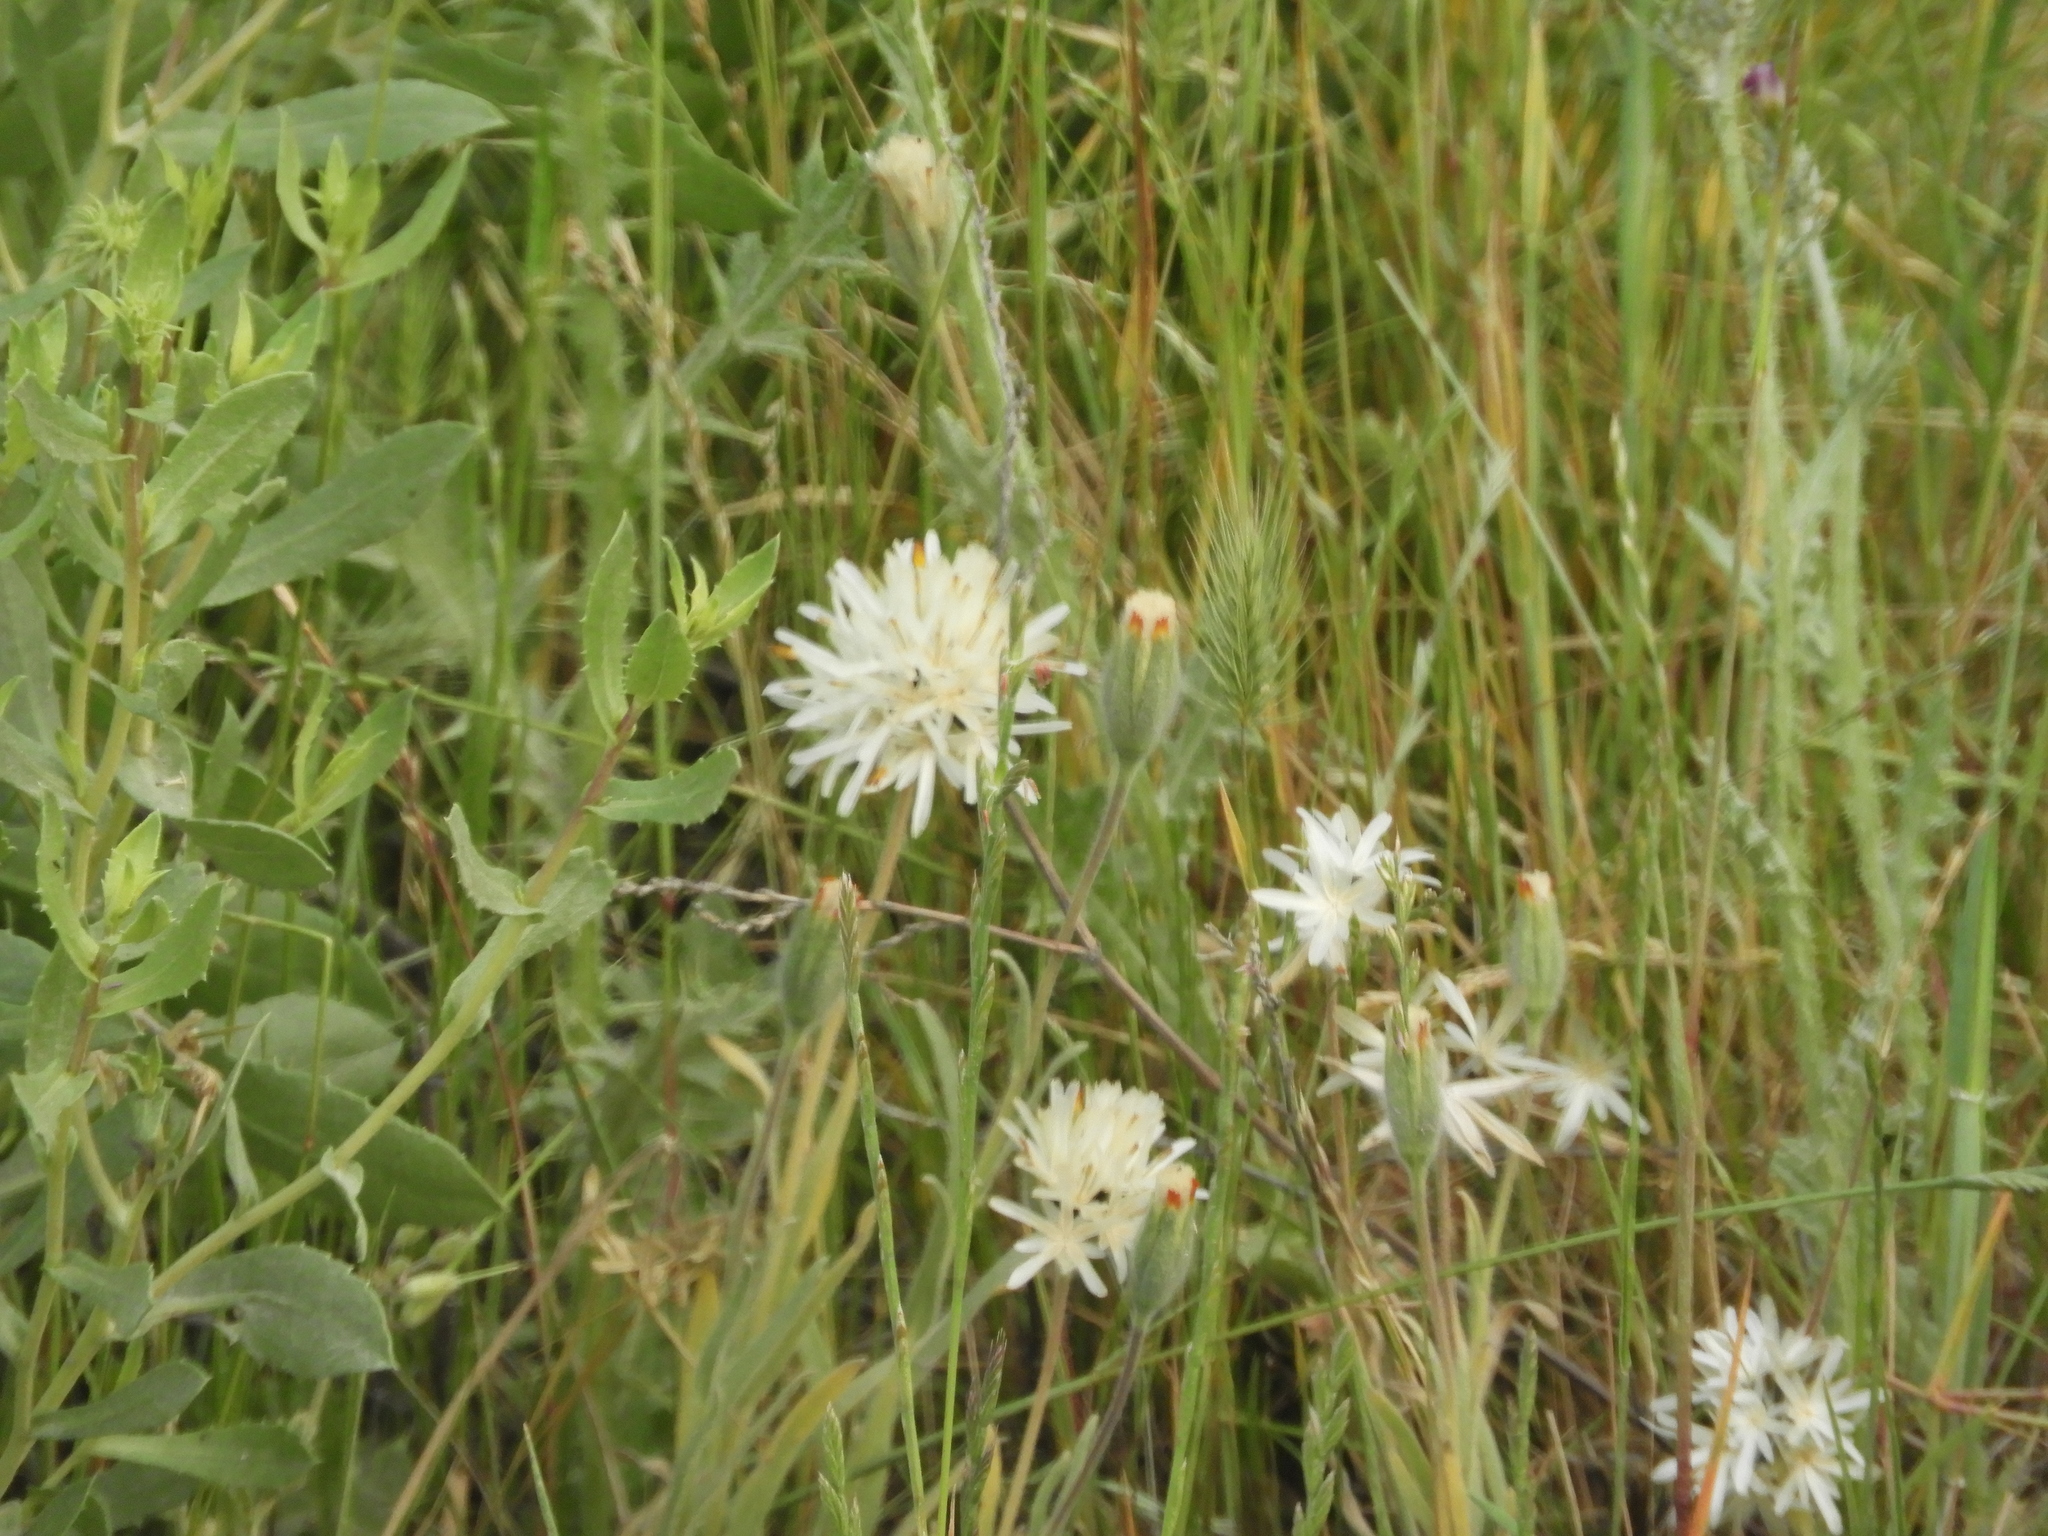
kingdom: Plantae
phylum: Tracheophyta
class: Magnoliopsida
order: Asterales
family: Asteraceae
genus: Achyrachaena
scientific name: Achyrachaena mollis
